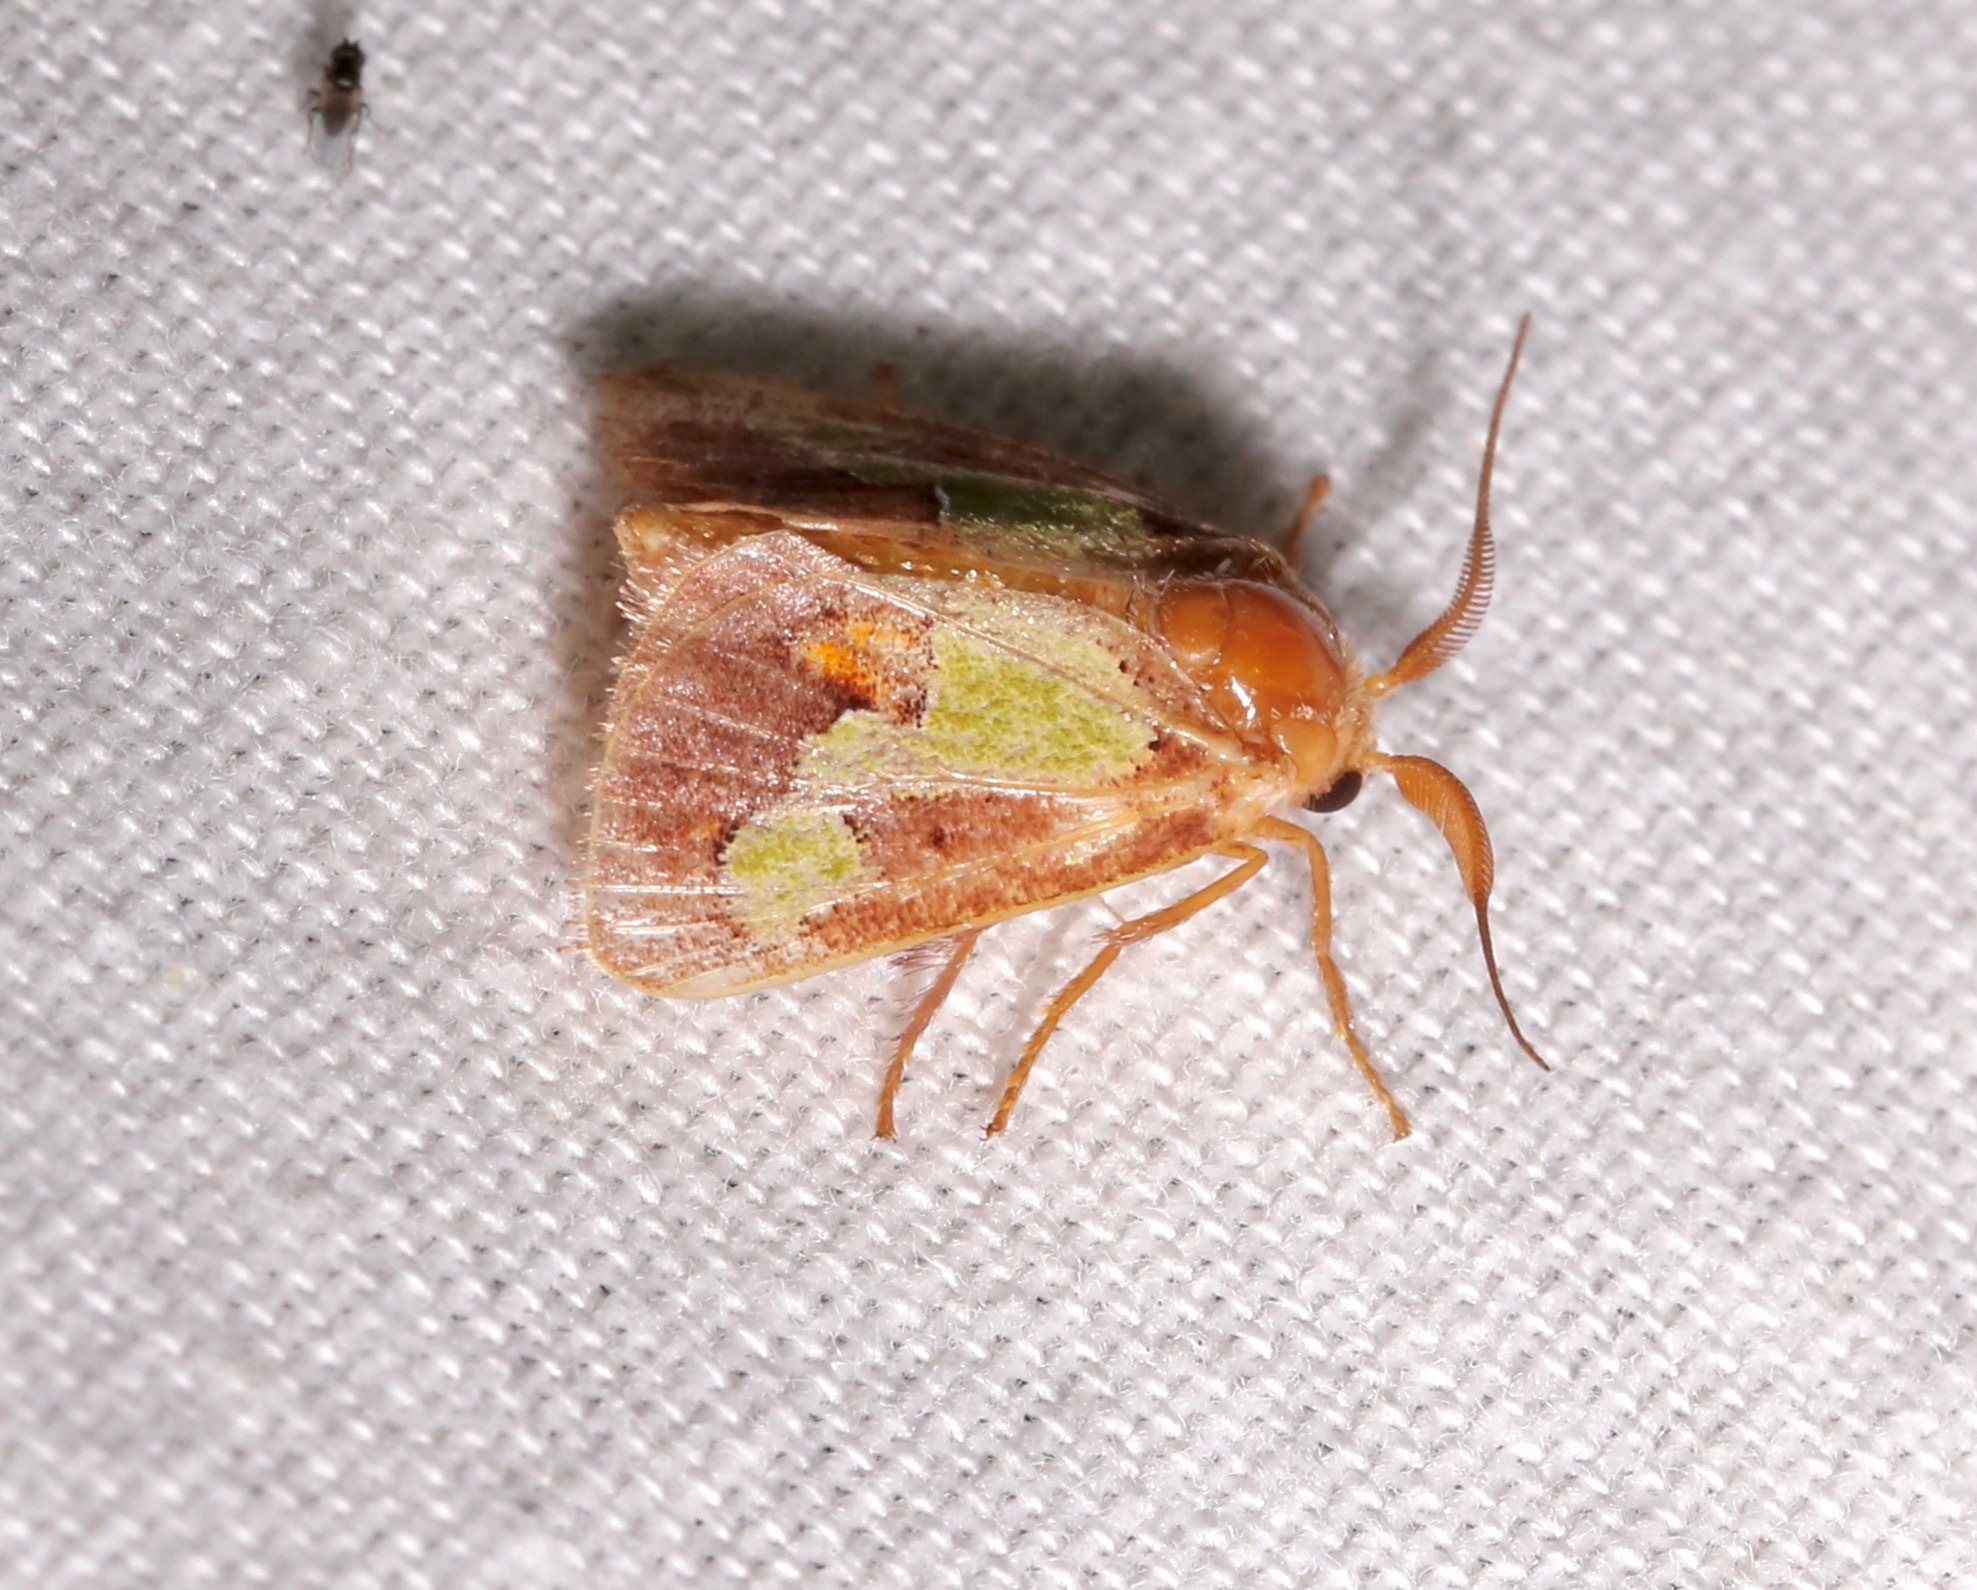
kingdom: Animalia
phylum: Arthropoda
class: Insecta
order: Lepidoptera
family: Limacodidae
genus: Euclea
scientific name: Euclea nanina
